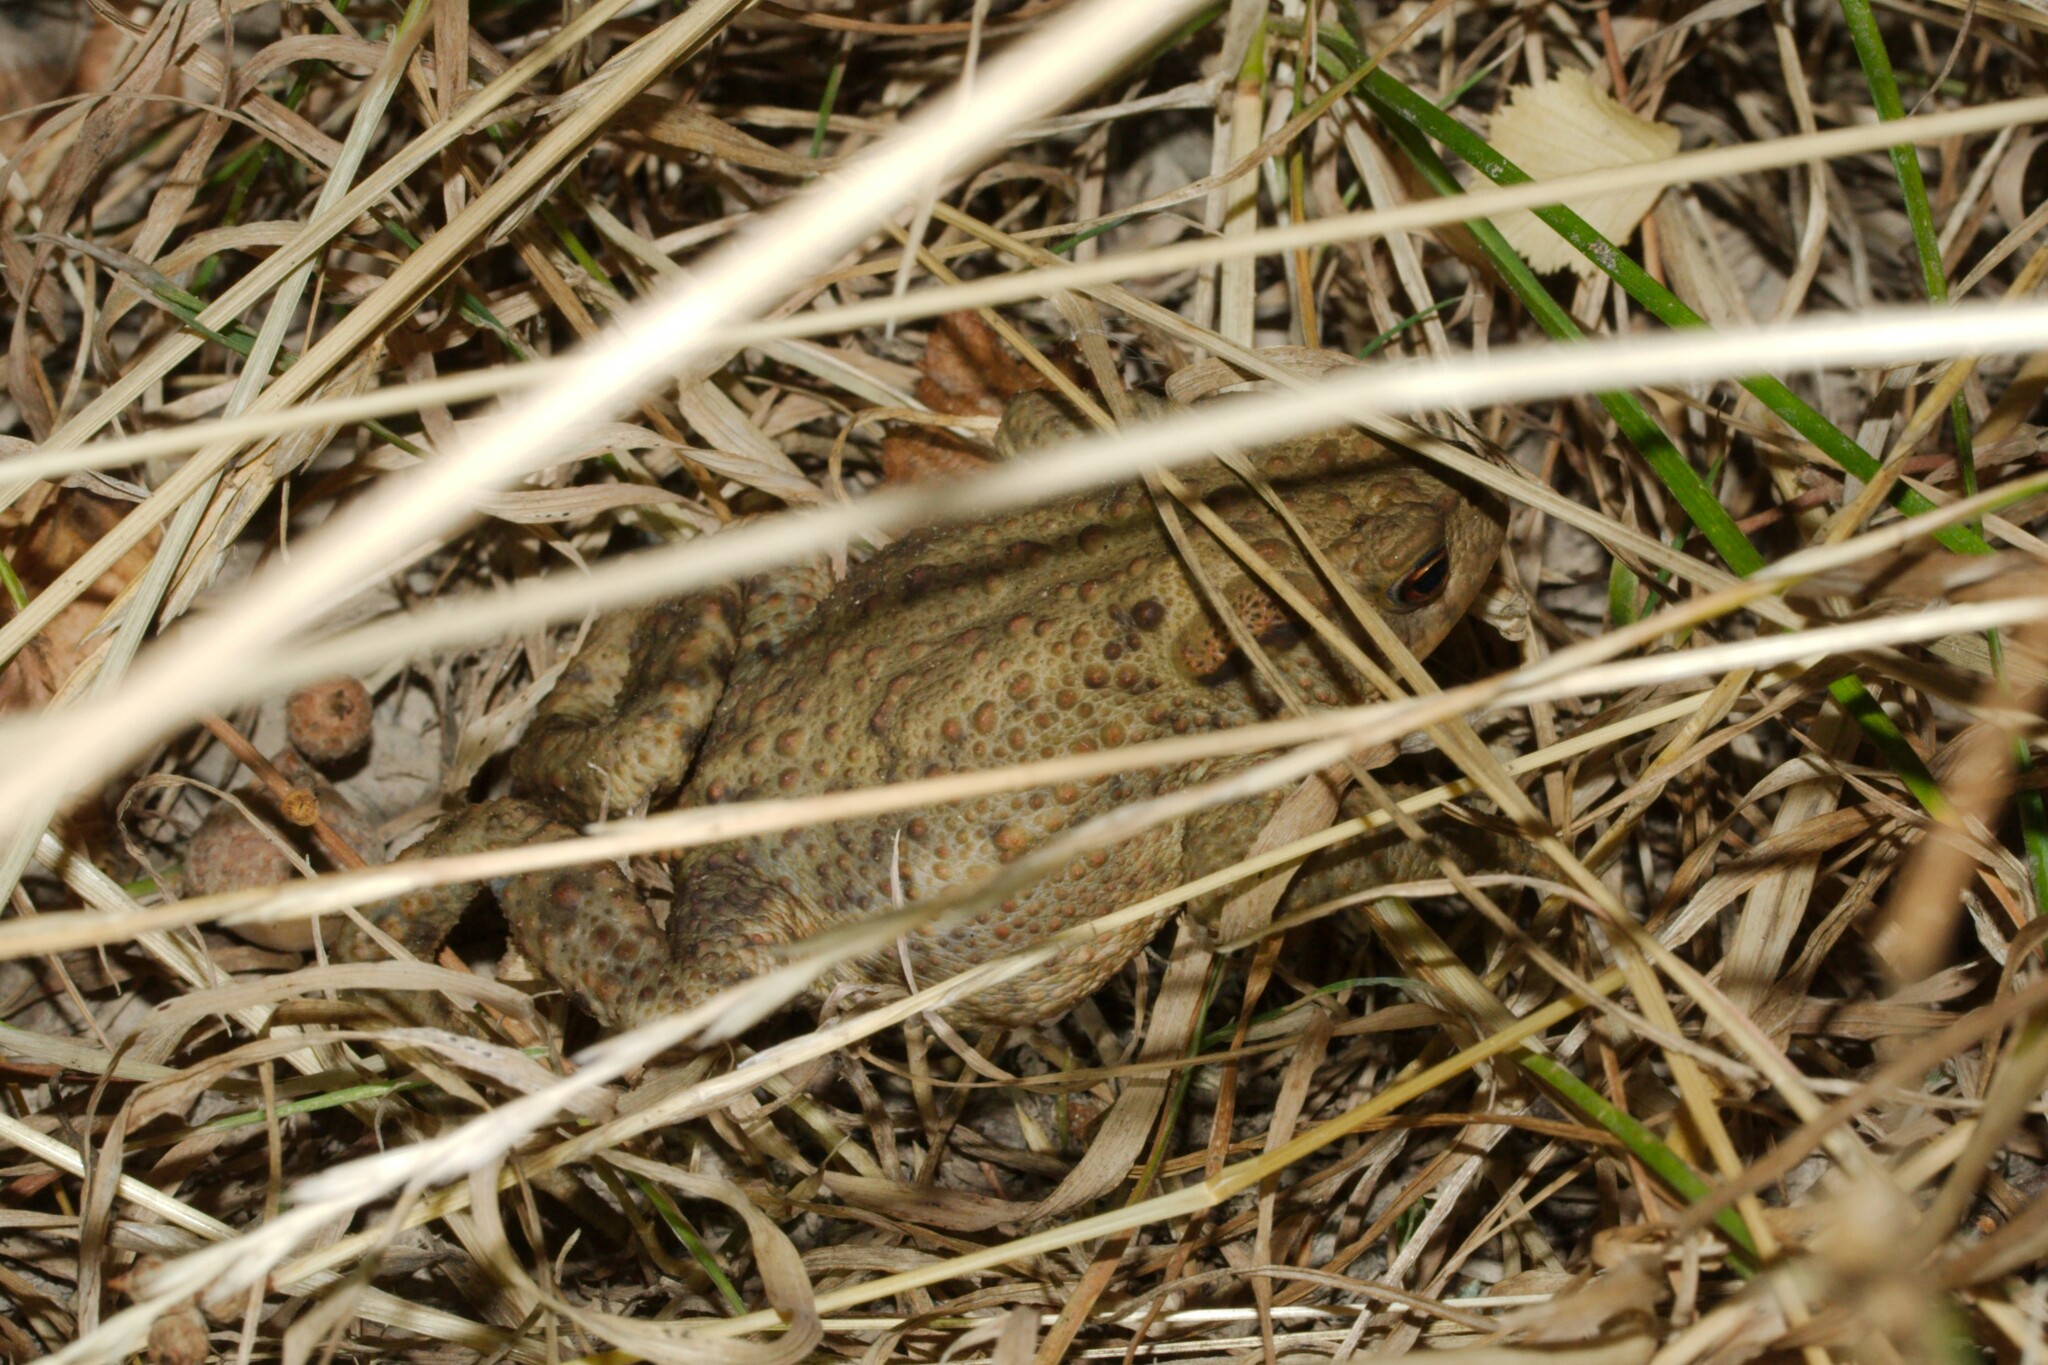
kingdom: Animalia
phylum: Chordata
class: Amphibia
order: Anura
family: Bufonidae
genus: Bufo
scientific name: Bufo bufo
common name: Common toad
